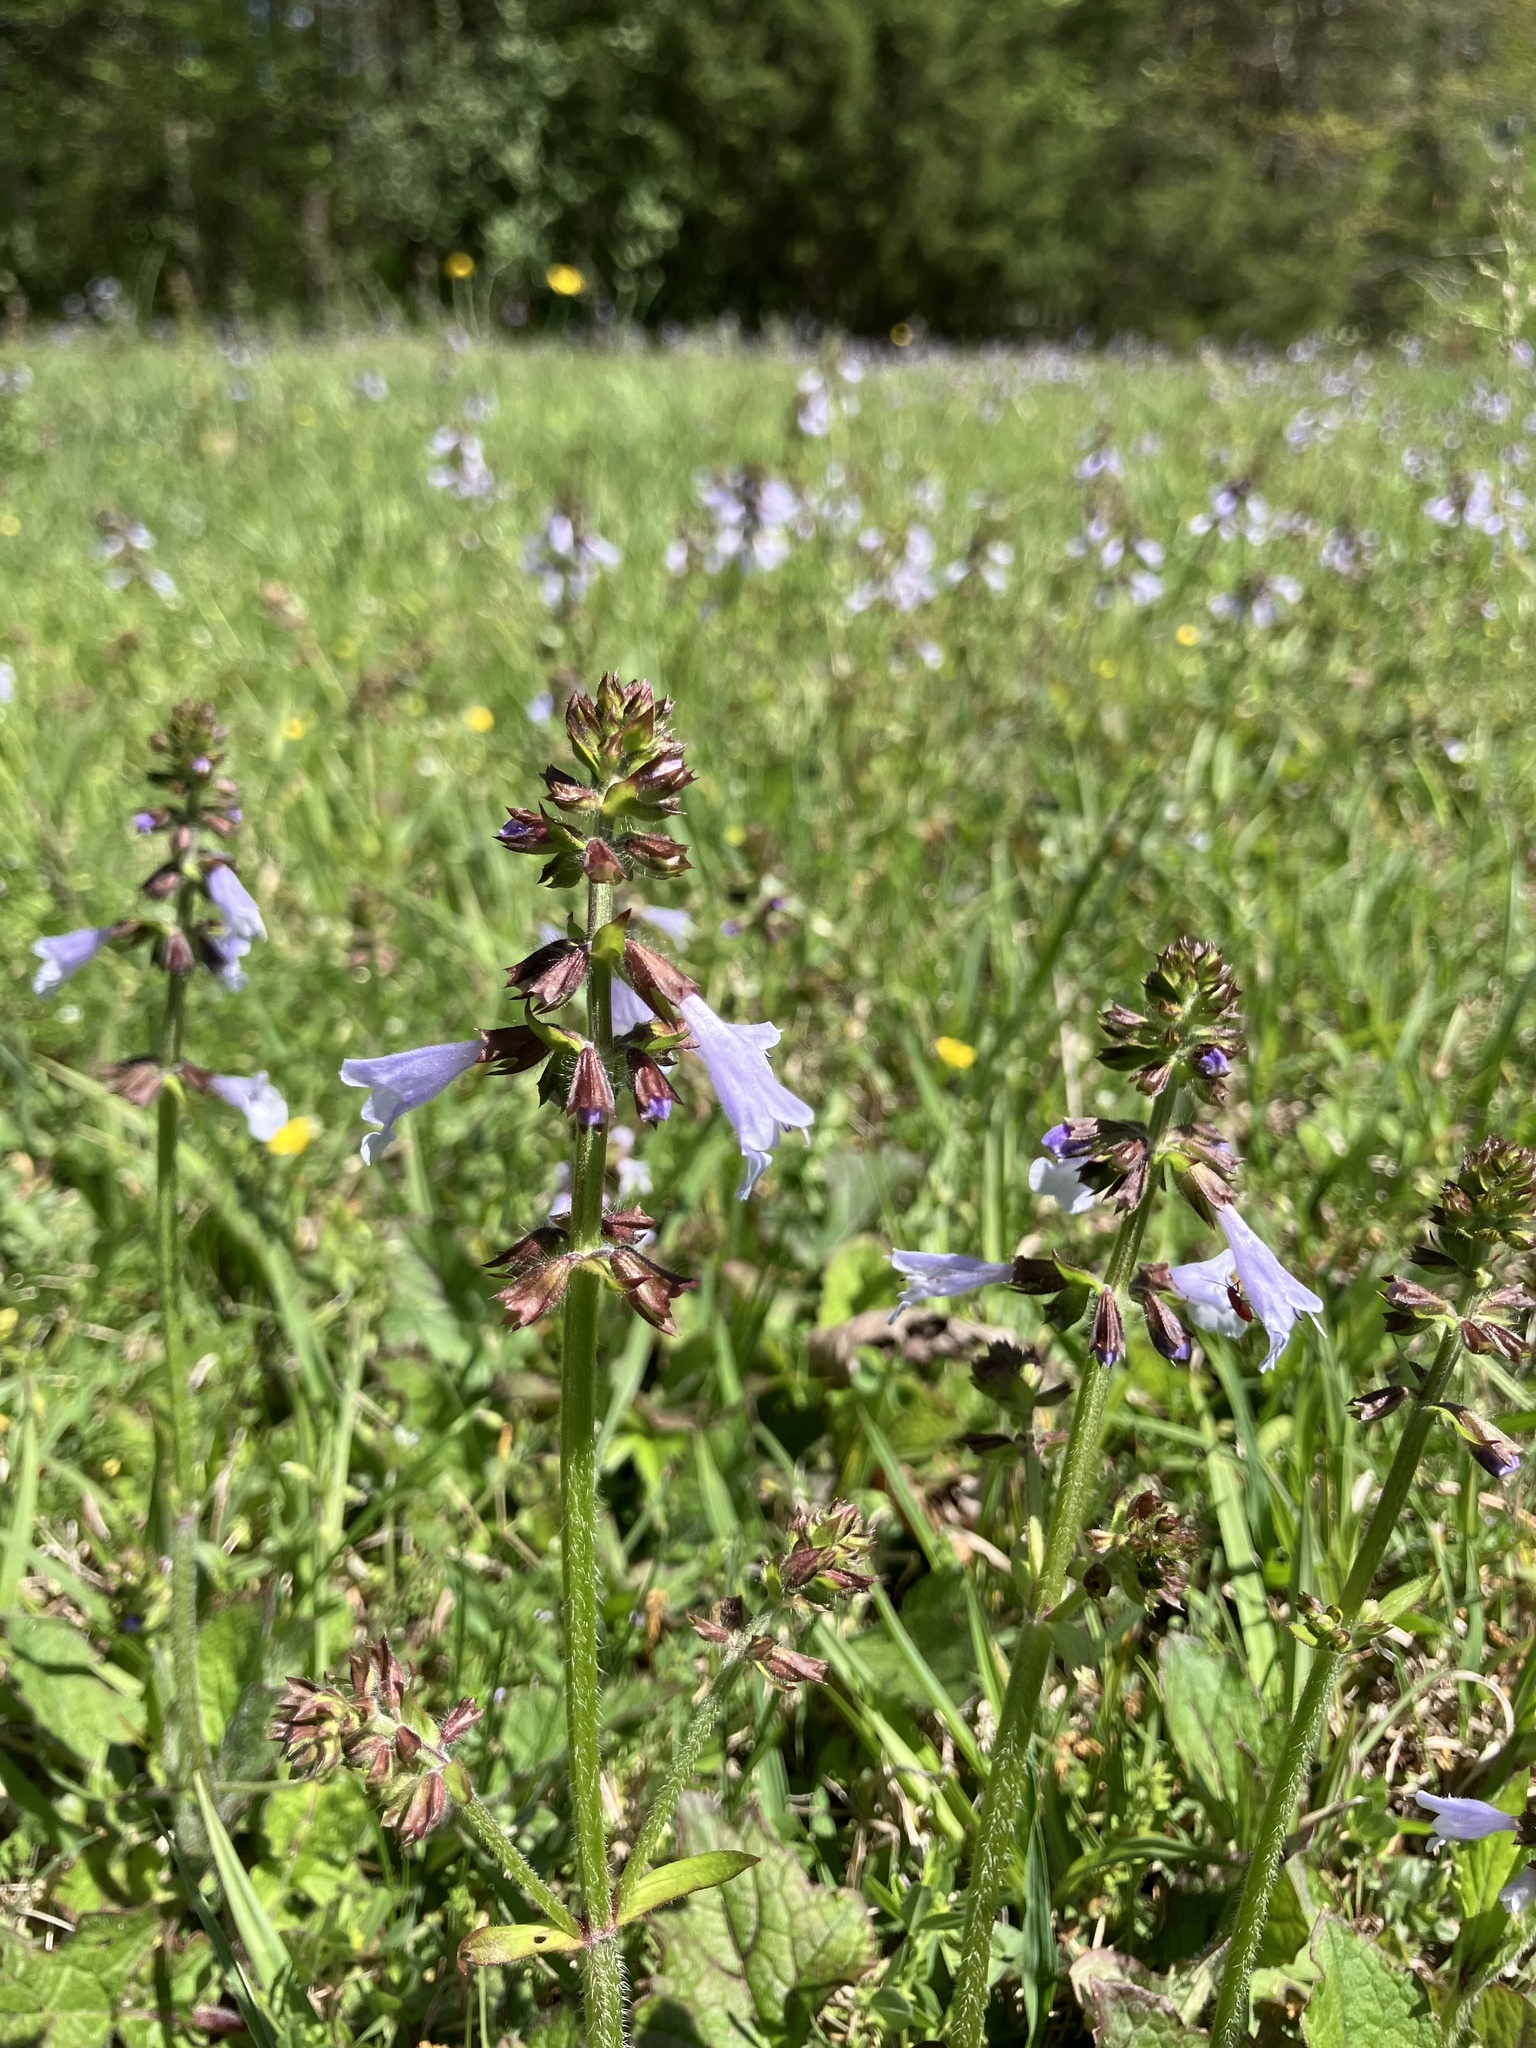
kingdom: Plantae
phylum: Tracheophyta
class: Magnoliopsida
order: Lamiales
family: Lamiaceae
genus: Salvia
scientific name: Salvia lyrata
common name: Cancerweed
